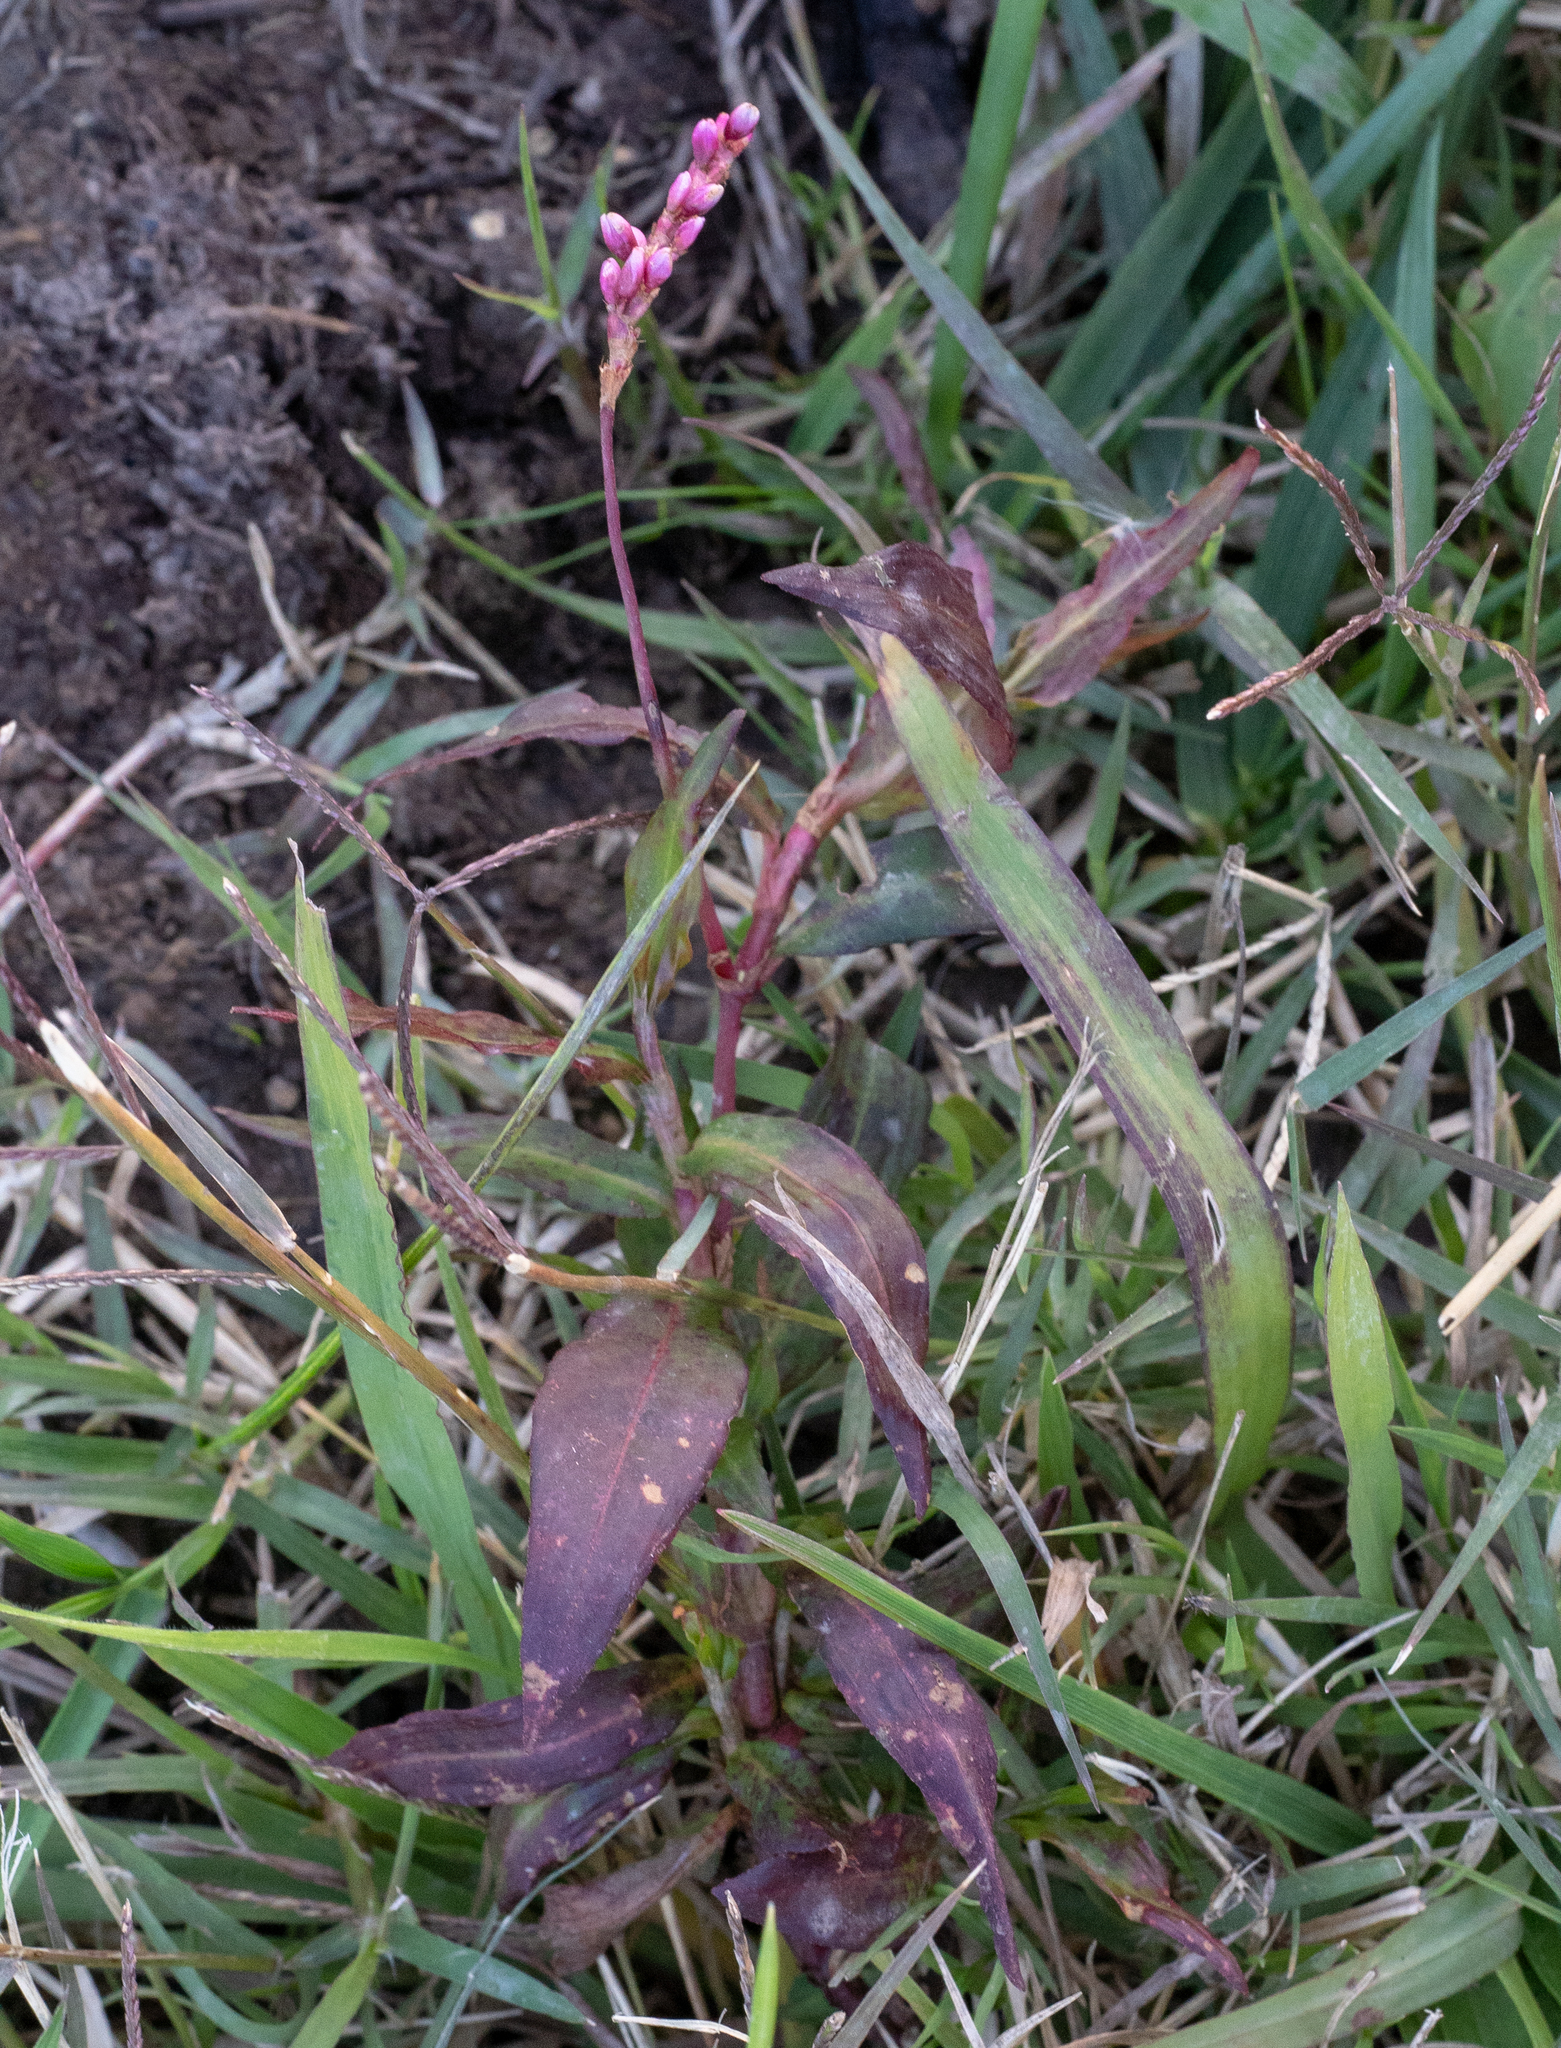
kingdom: Plantae
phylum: Tracheophyta
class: Magnoliopsida
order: Caryophyllales
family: Polygonaceae
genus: Persicaria
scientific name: Persicaria decipiens
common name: Willow-weed
